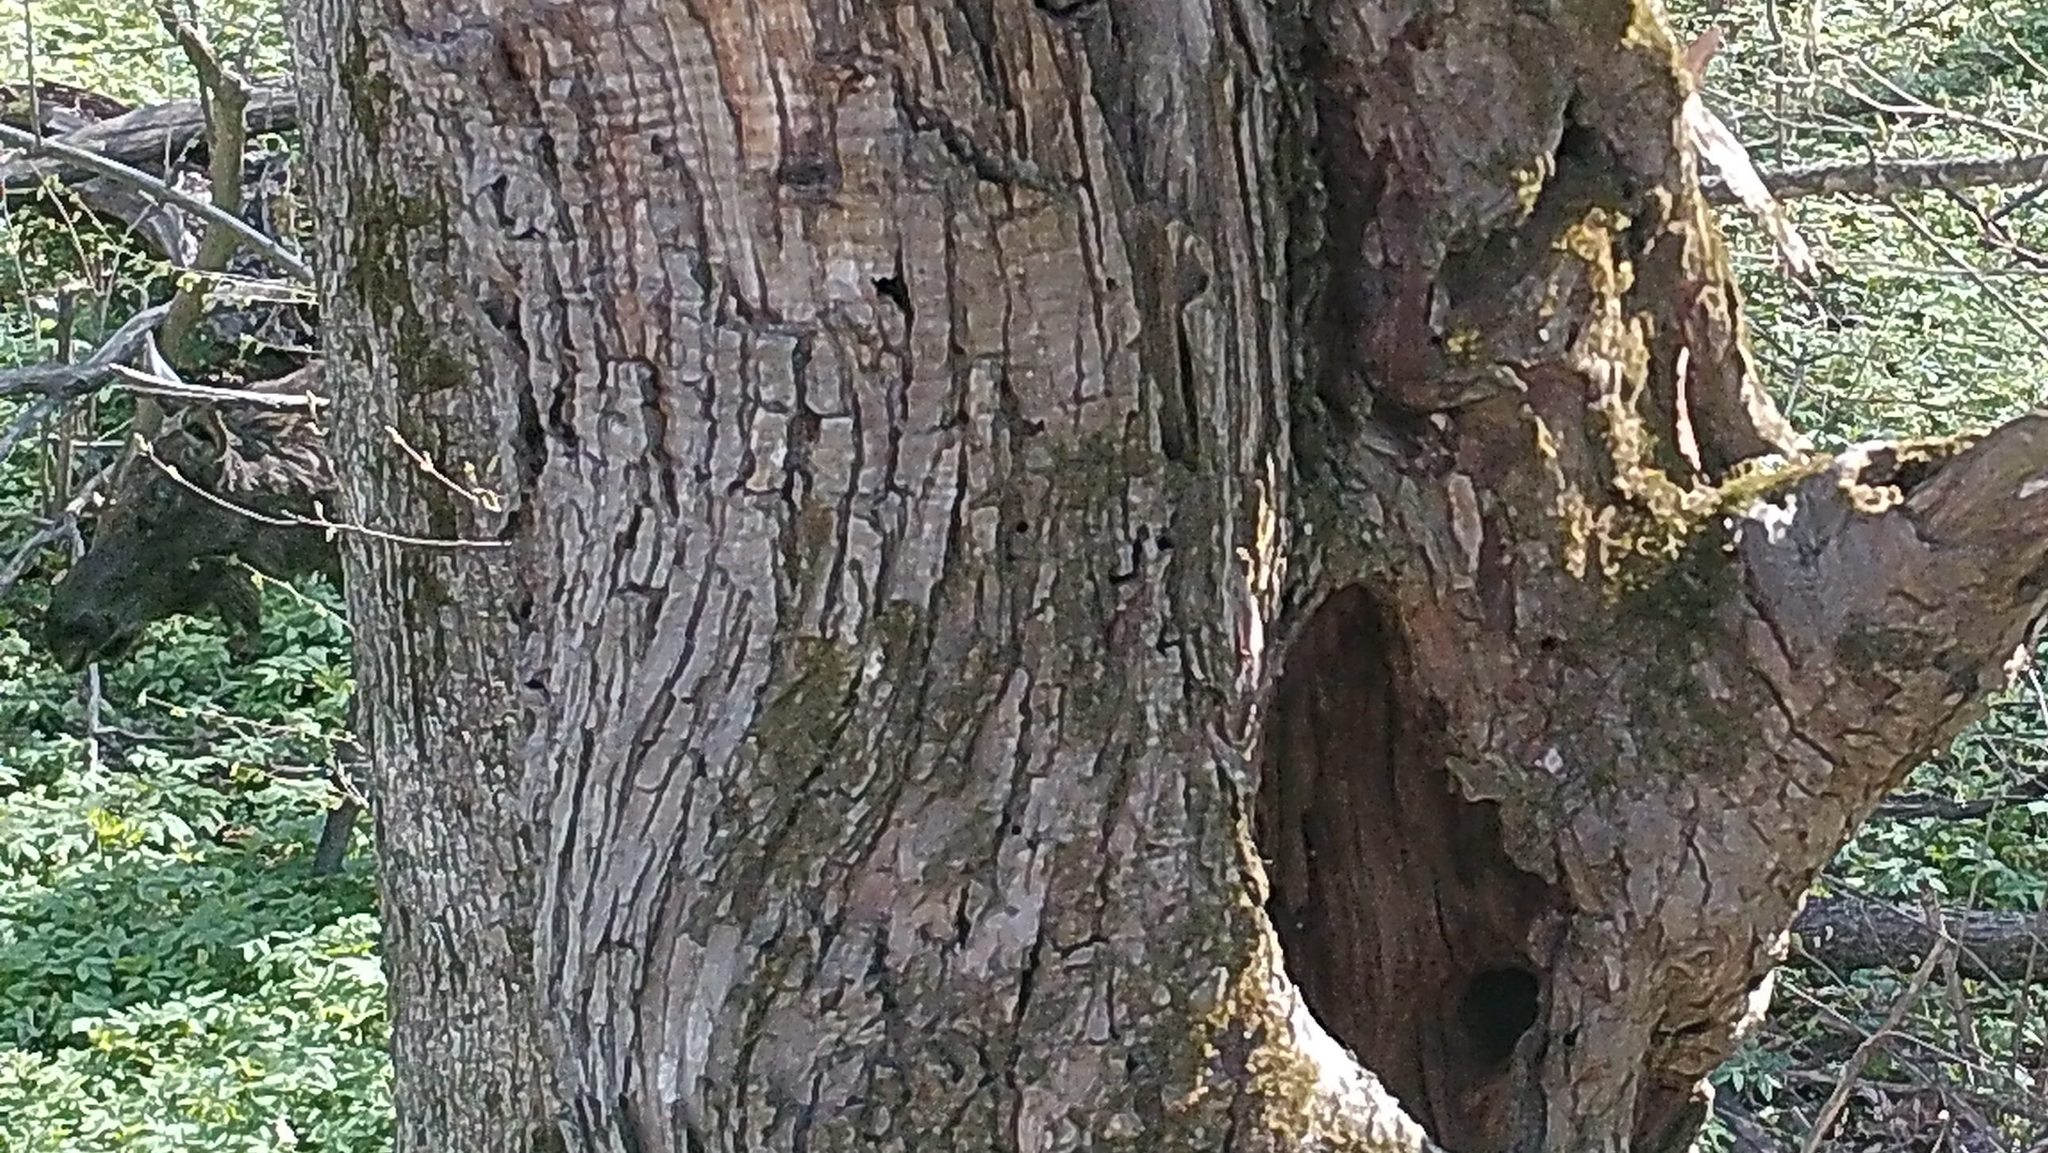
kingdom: Animalia
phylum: Chordata
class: Mammalia
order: Artiodactyla
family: Cervidae
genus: Alces
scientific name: Alces alces
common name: Moose
